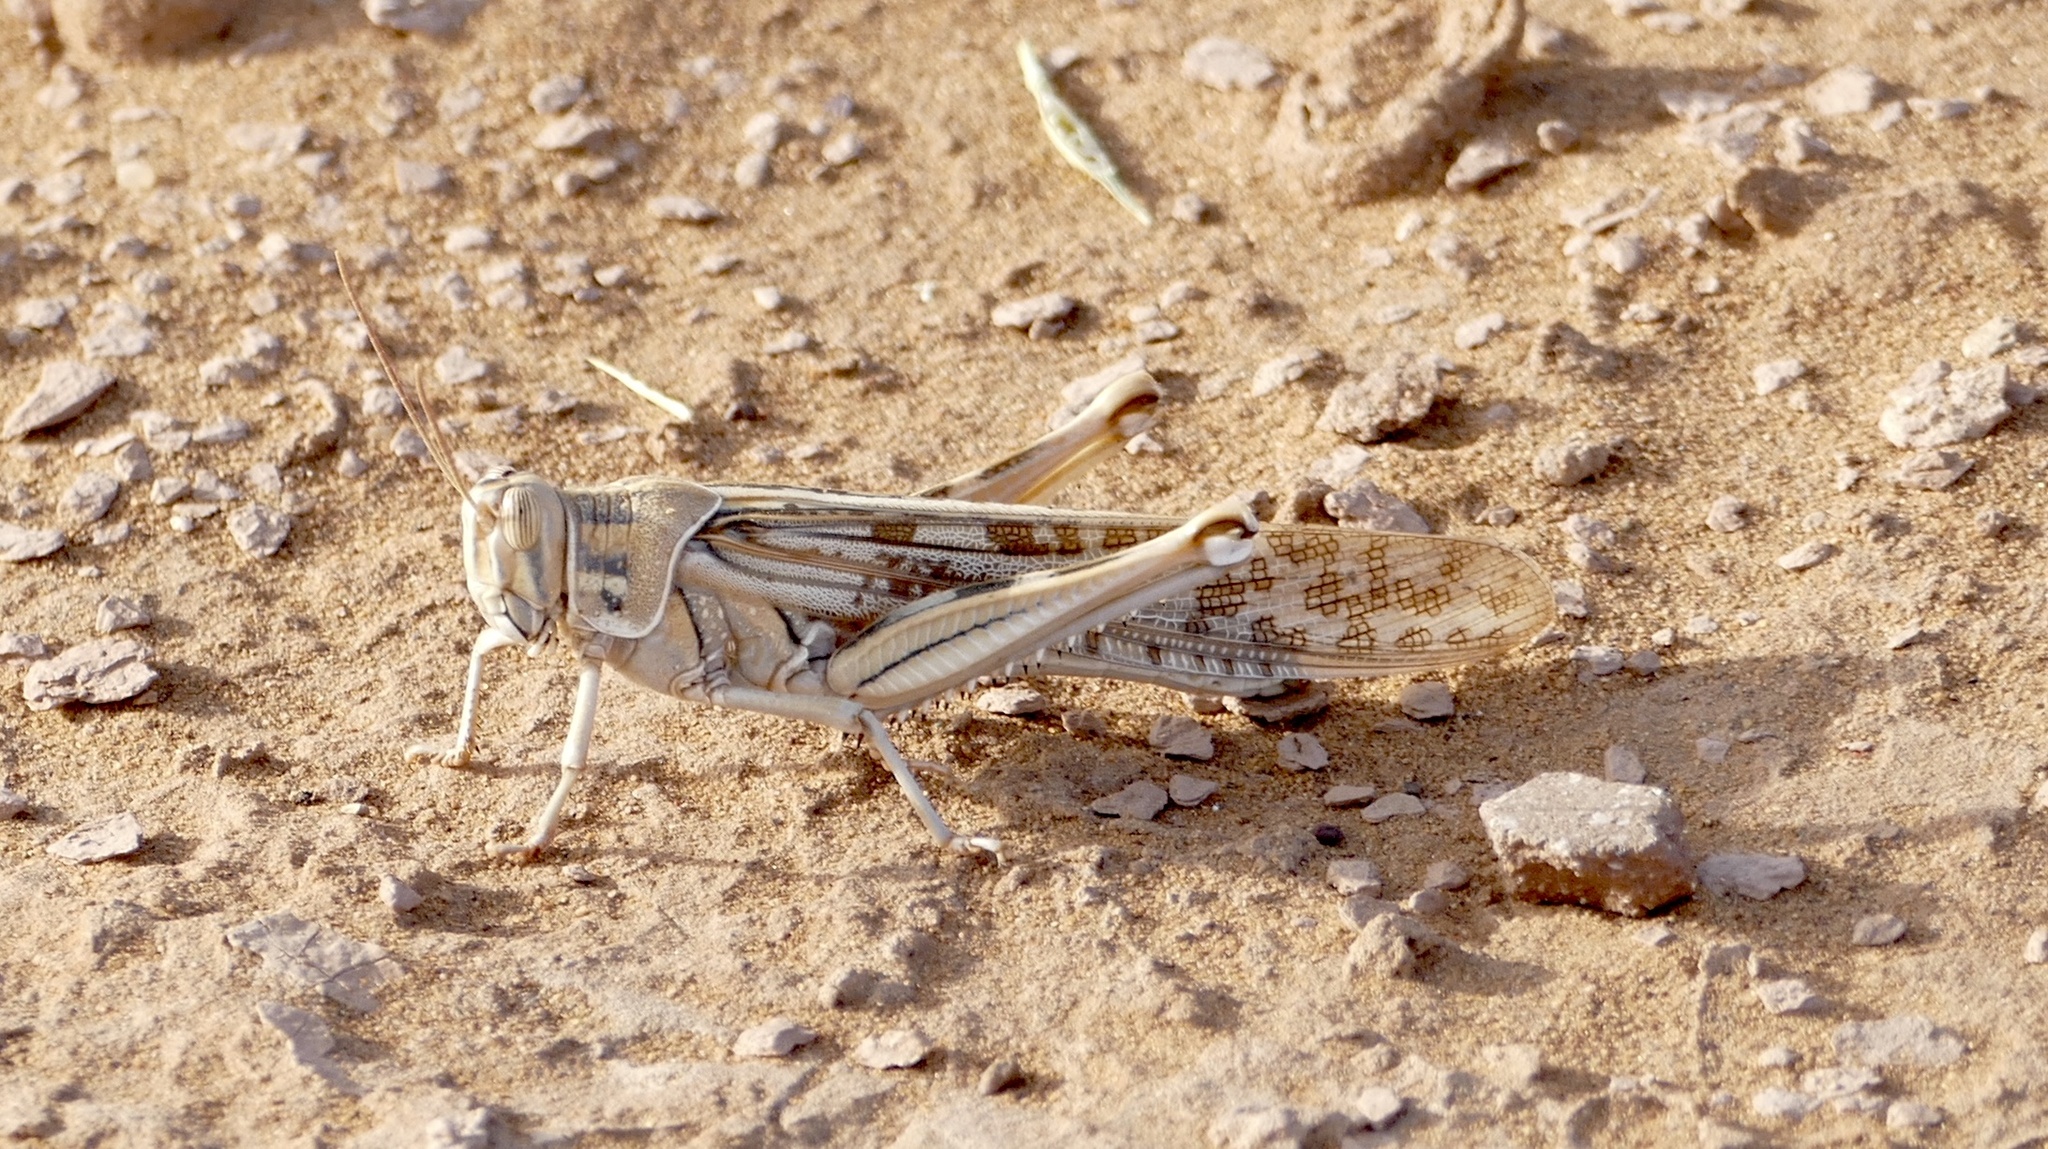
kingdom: Animalia
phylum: Arthropoda
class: Insecta
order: Orthoptera
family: Acrididae
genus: Schistocerca
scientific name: Schistocerca gregaria
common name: Desert locust
